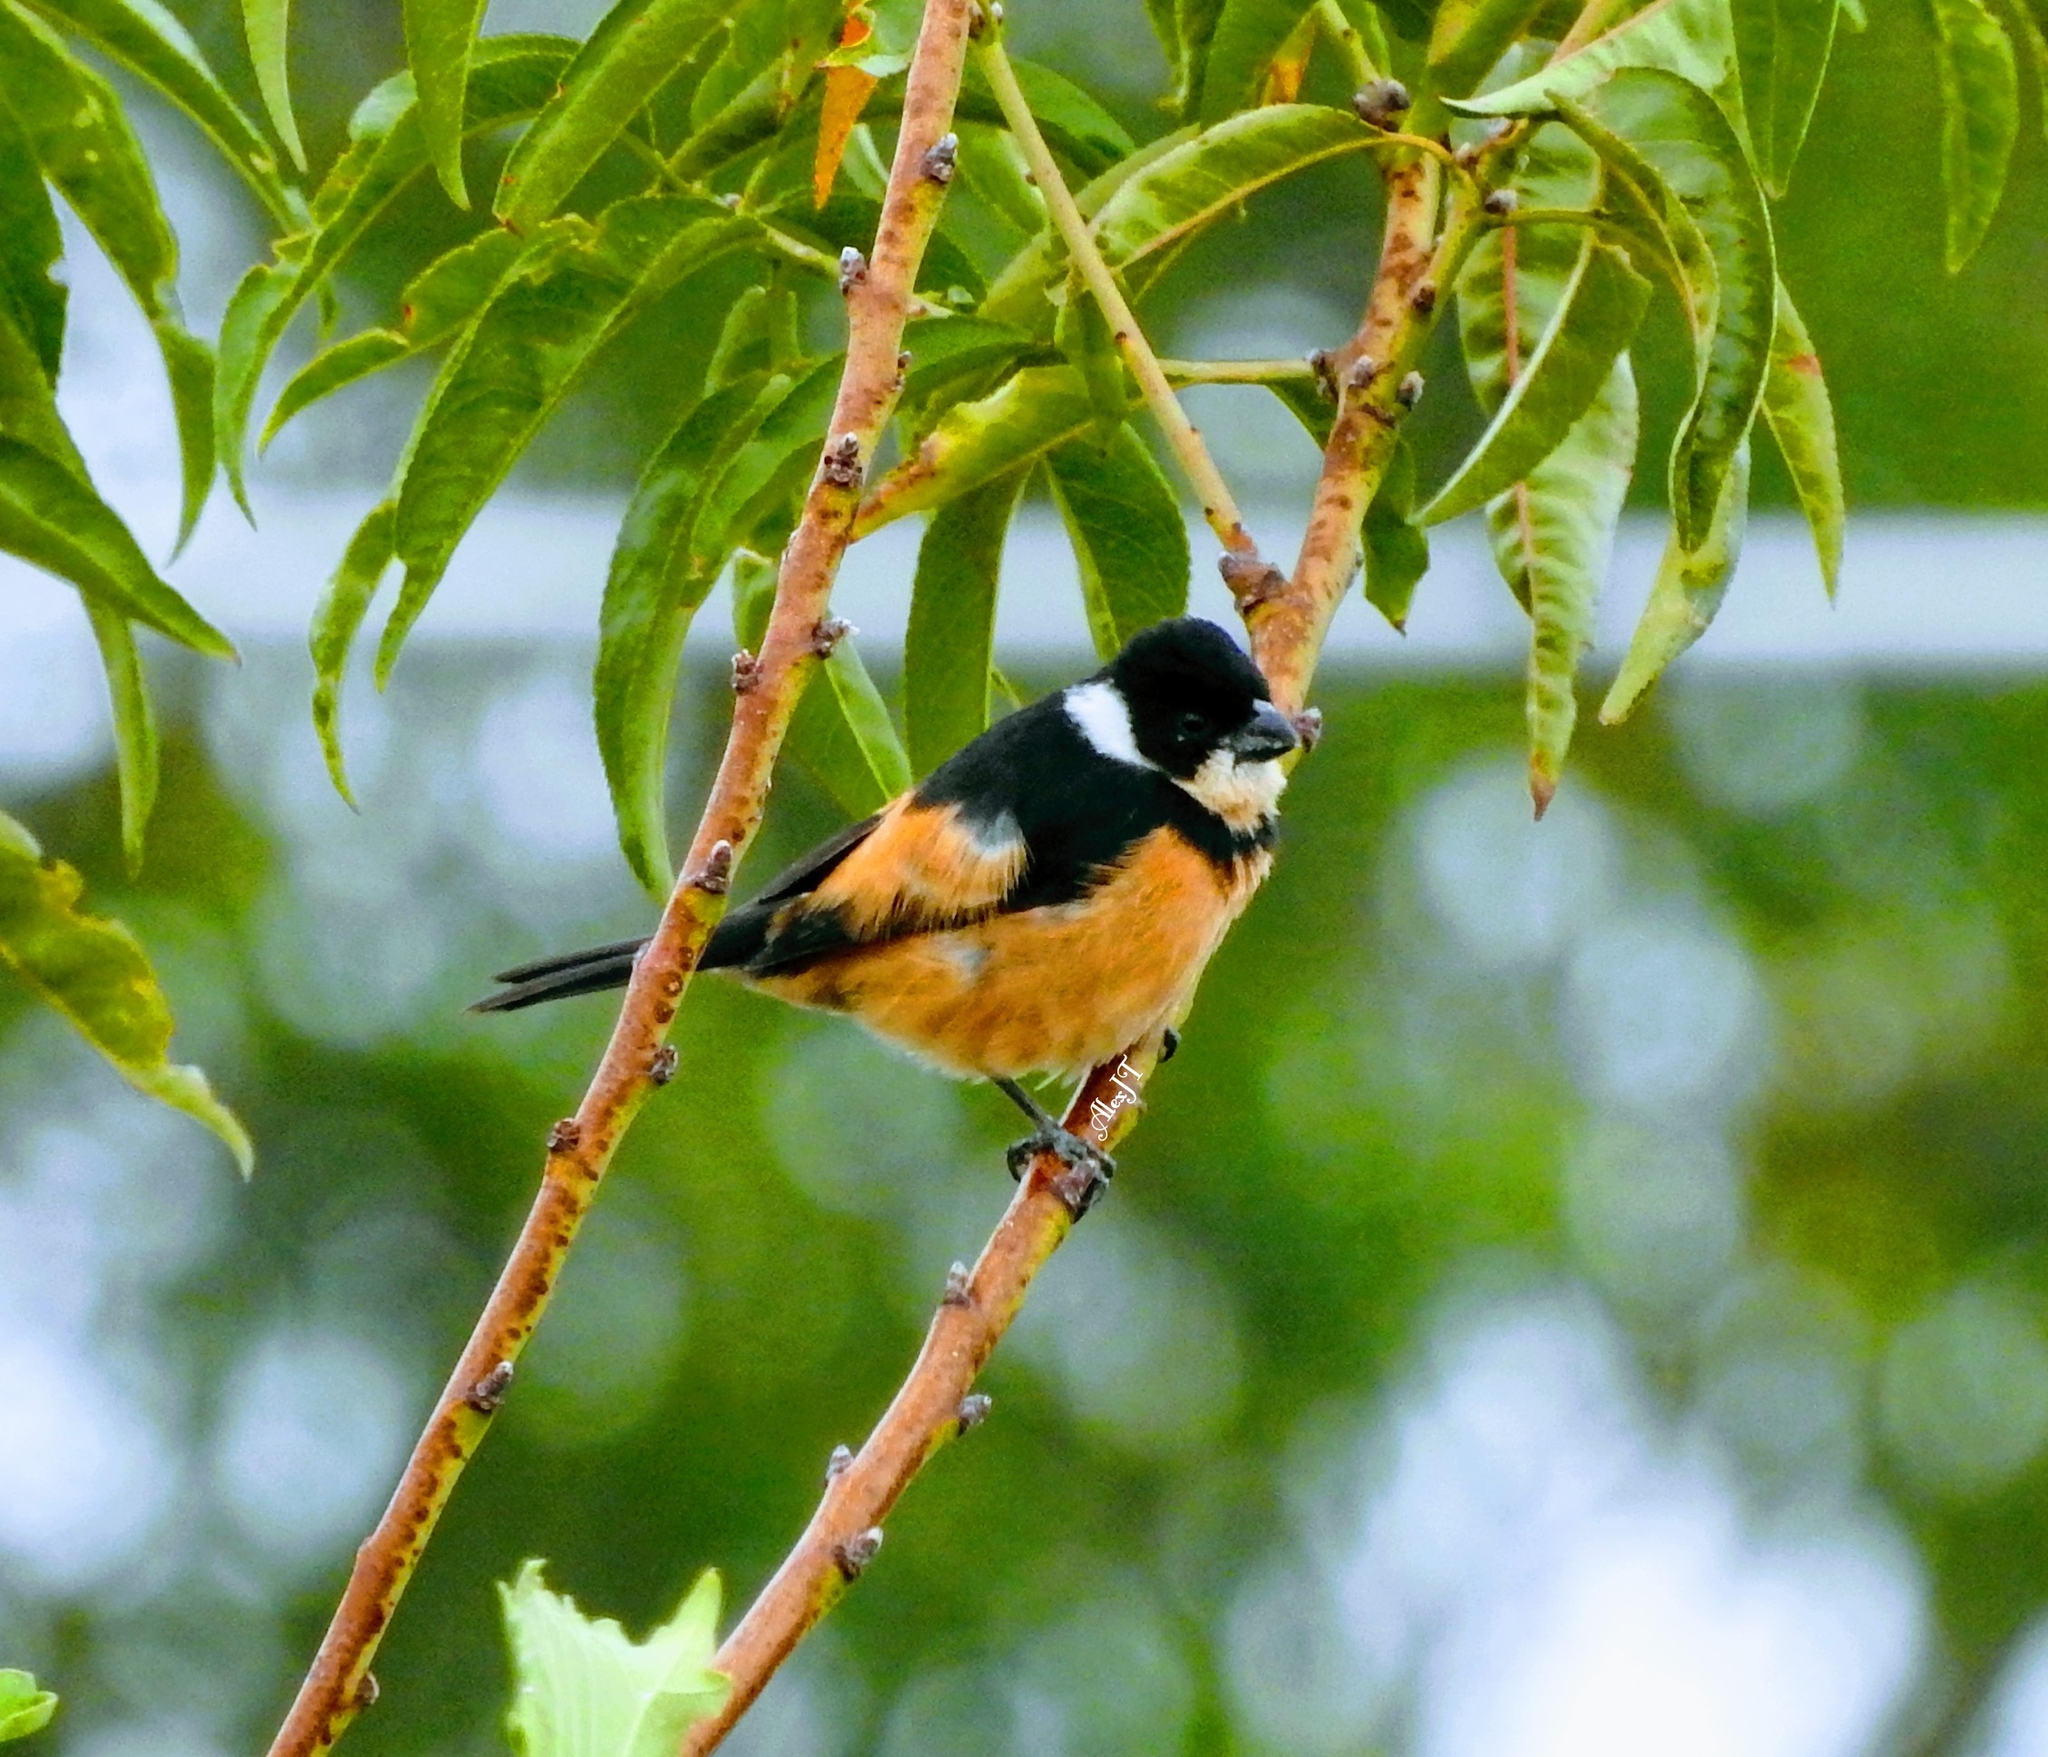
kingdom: Animalia
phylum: Chordata
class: Aves
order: Passeriformes
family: Thraupidae
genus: Sporophila
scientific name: Sporophila torqueola
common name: White-collared seedeater
